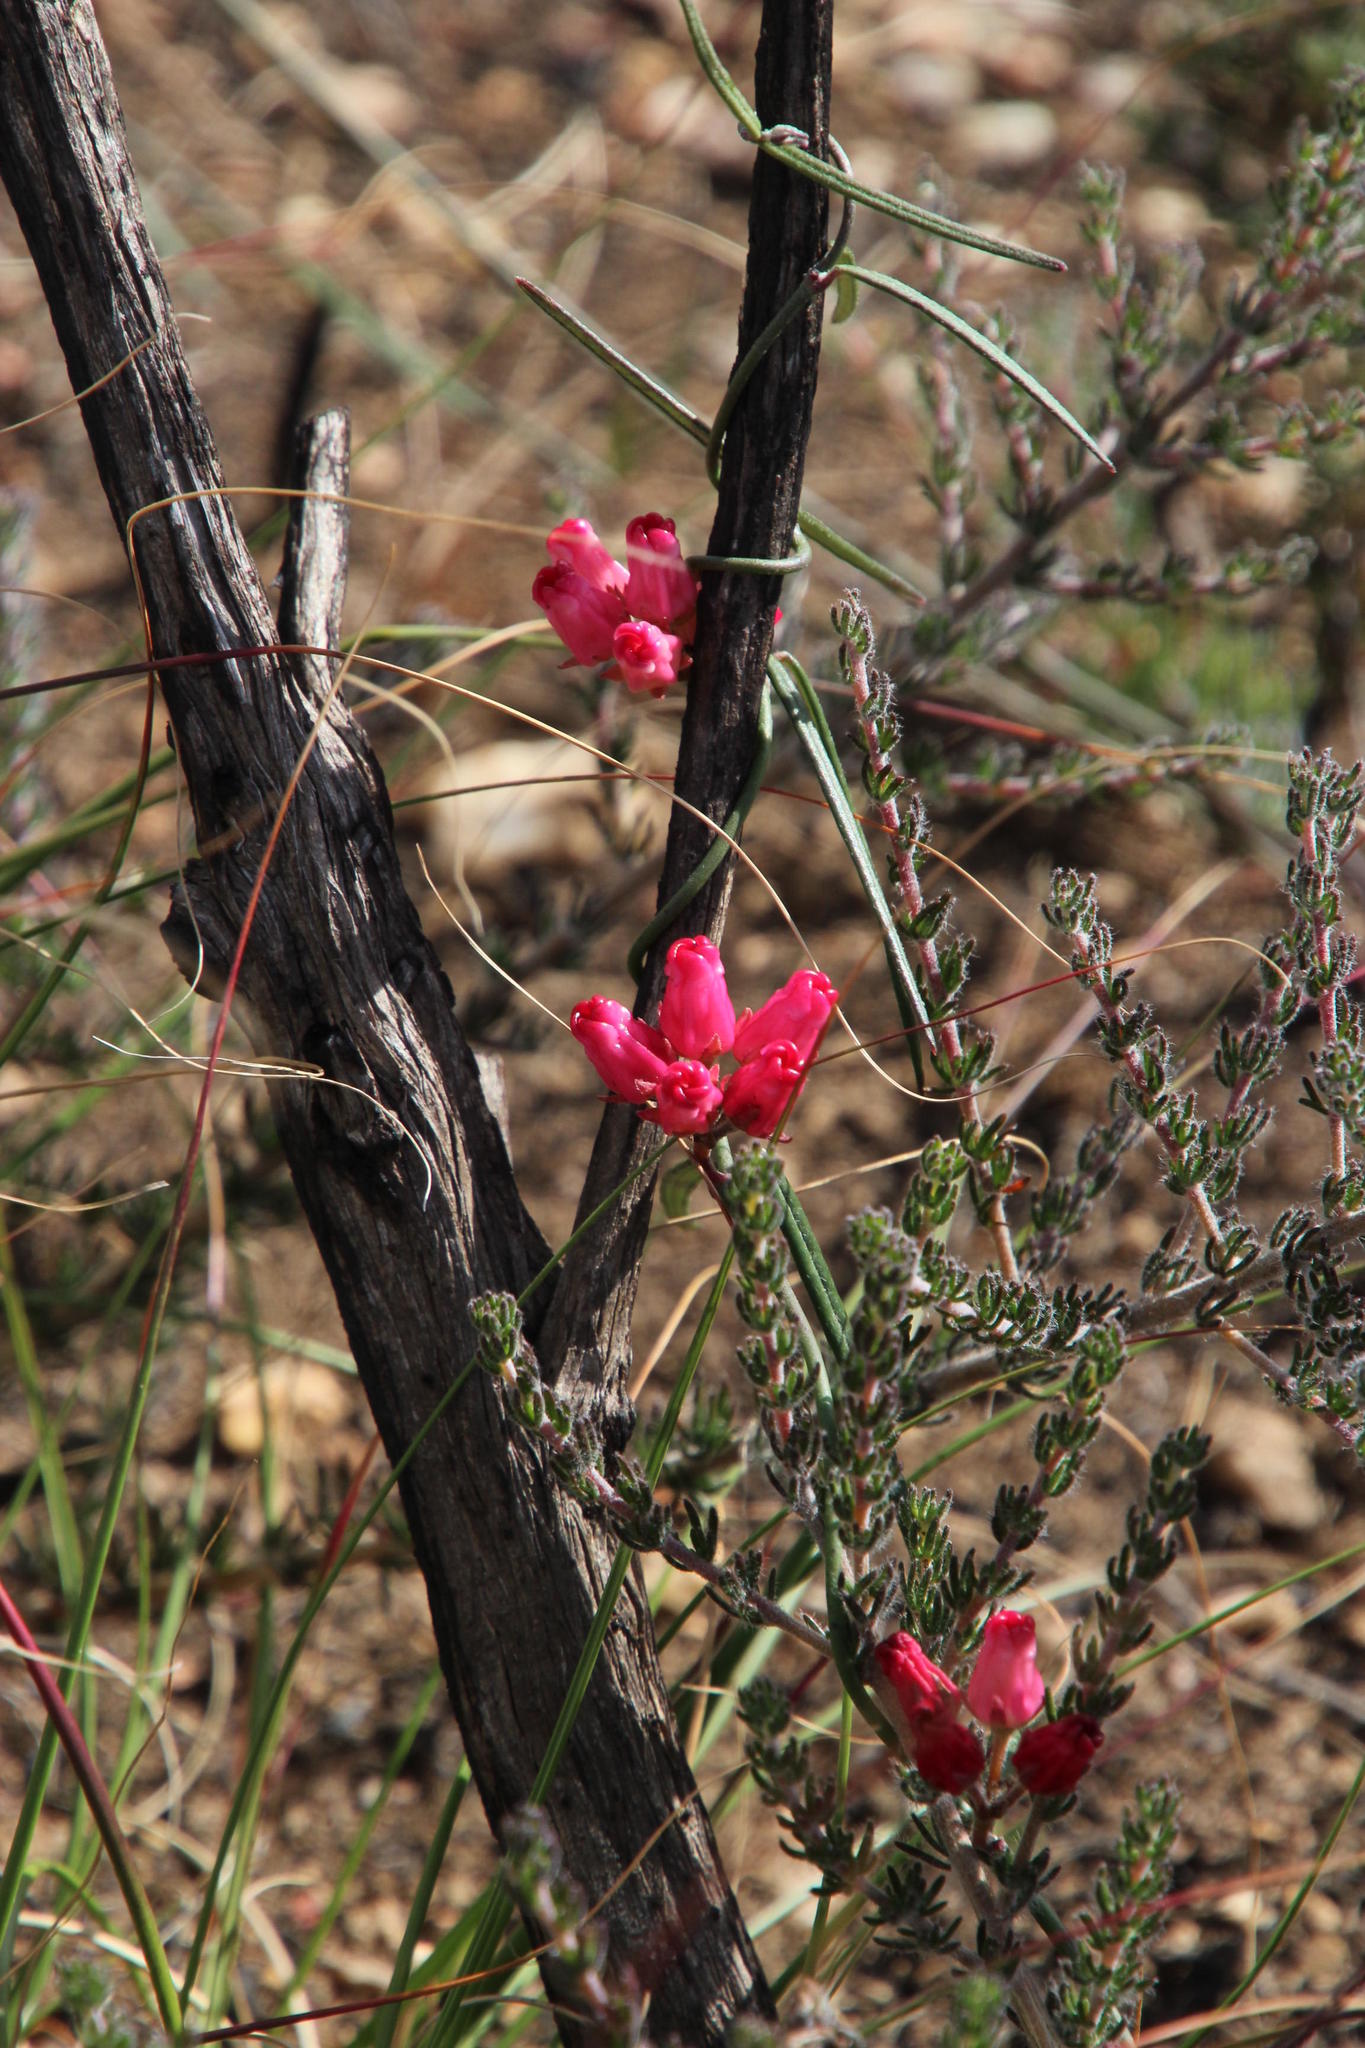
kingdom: Plantae
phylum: Tracheophyta
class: Magnoliopsida
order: Gentianales
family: Apocynaceae
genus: Microloma
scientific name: Microloma tenuifolium
